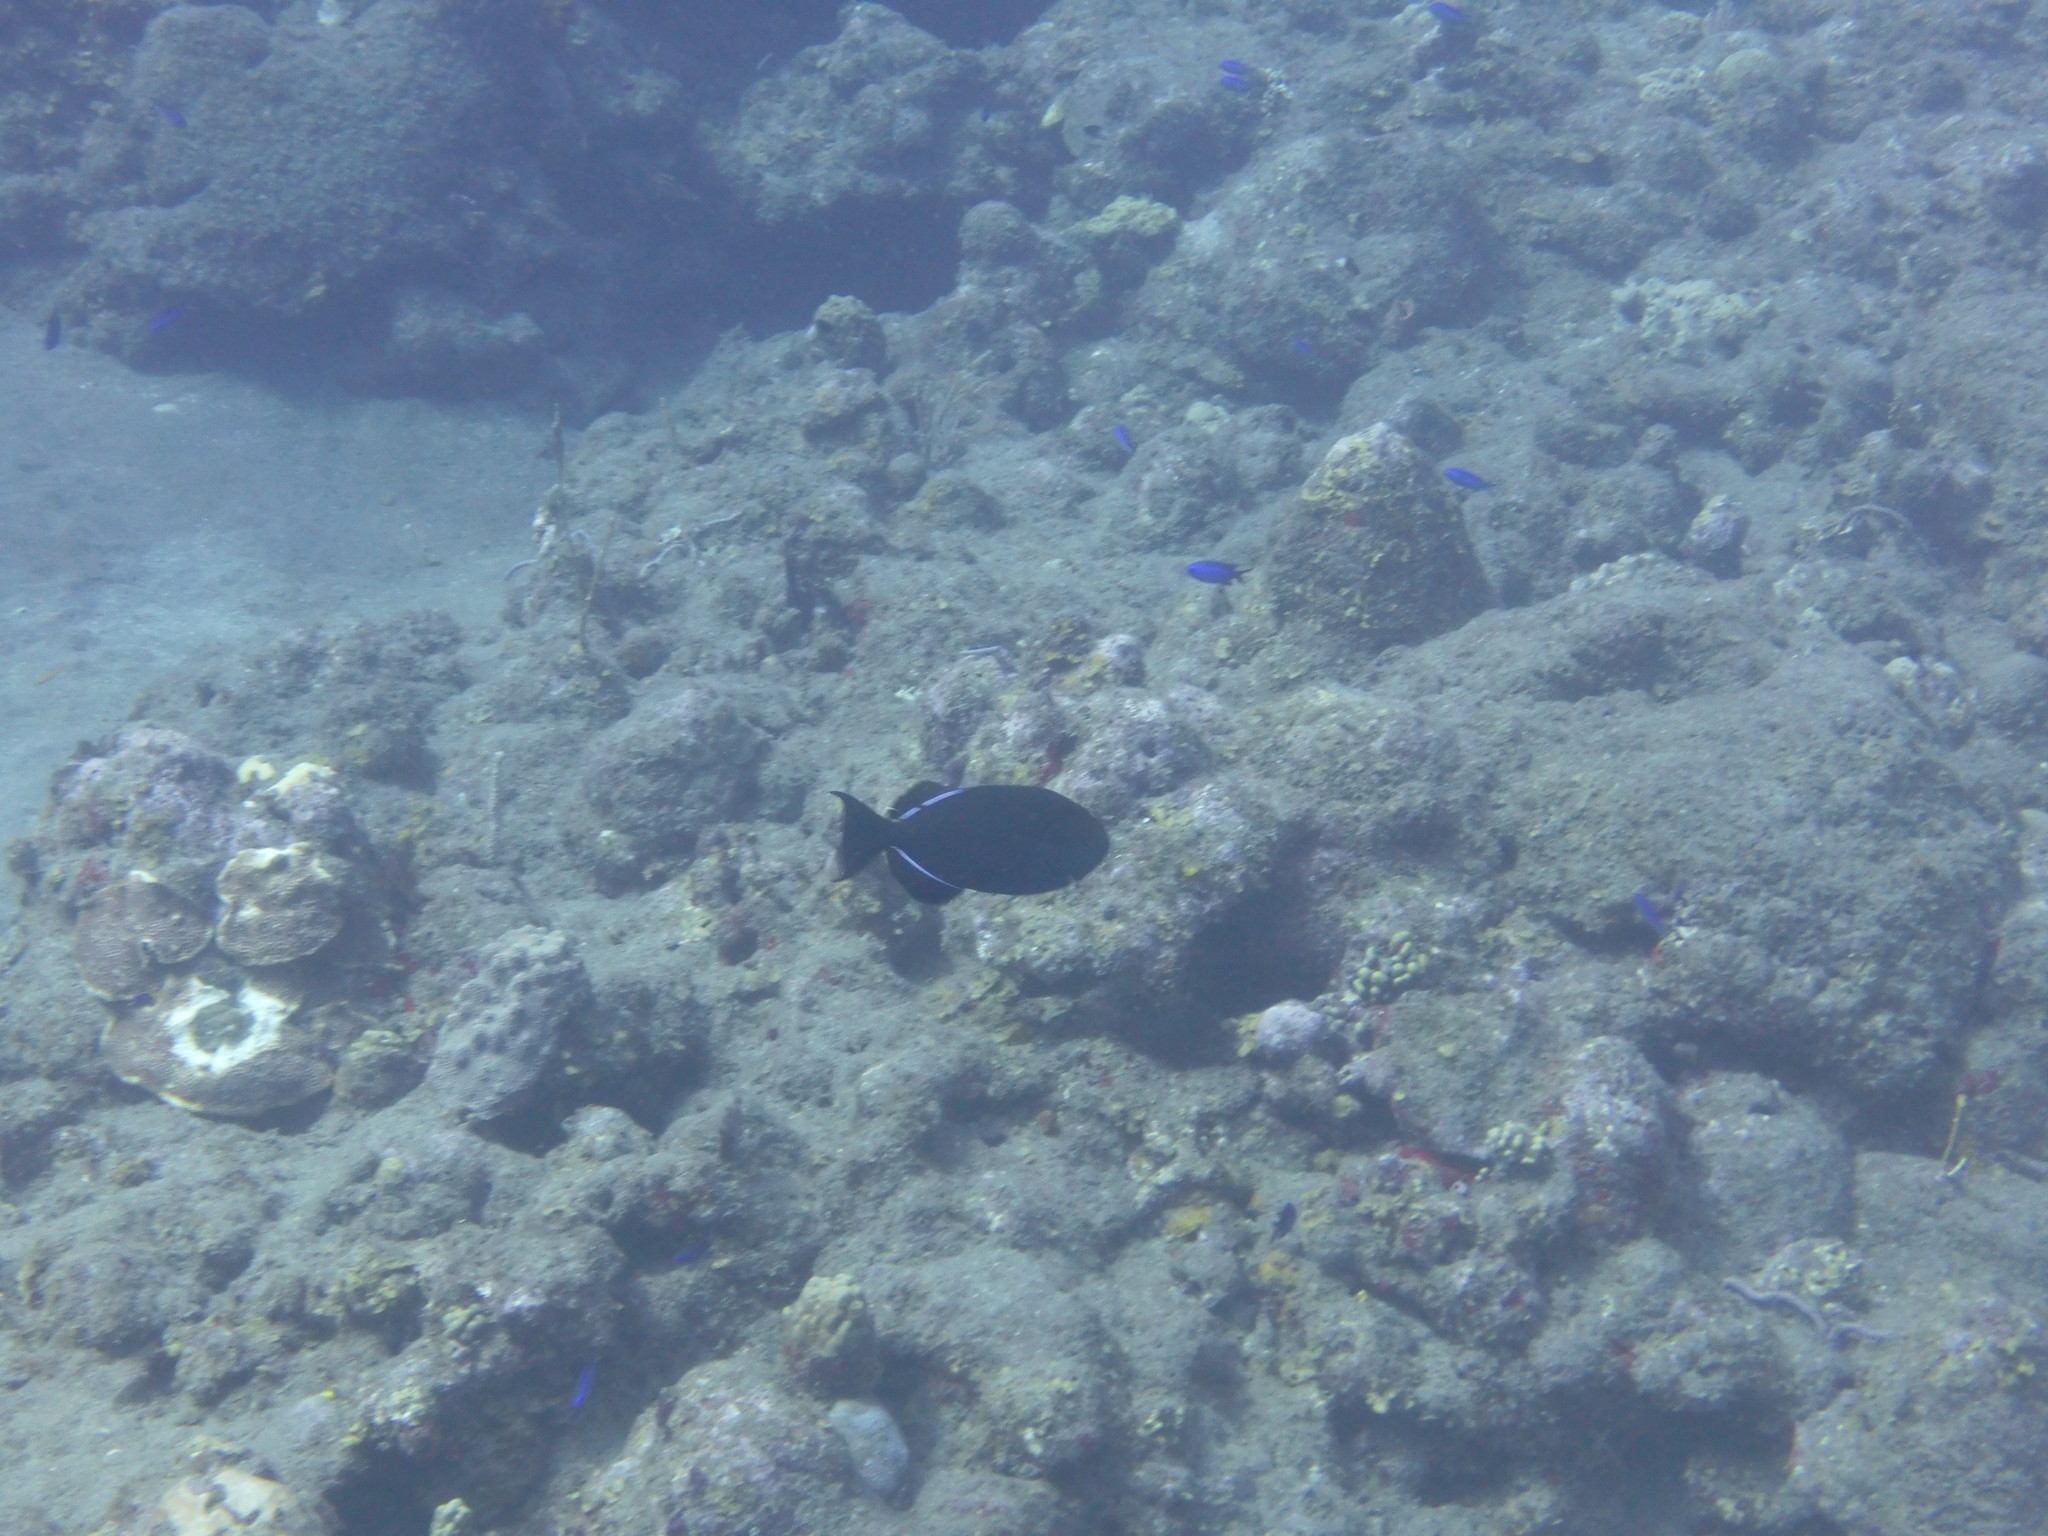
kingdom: Animalia
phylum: Chordata
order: Tetraodontiformes
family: Balistidae
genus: Melichthys
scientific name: Melichthys niger
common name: Black durgon
